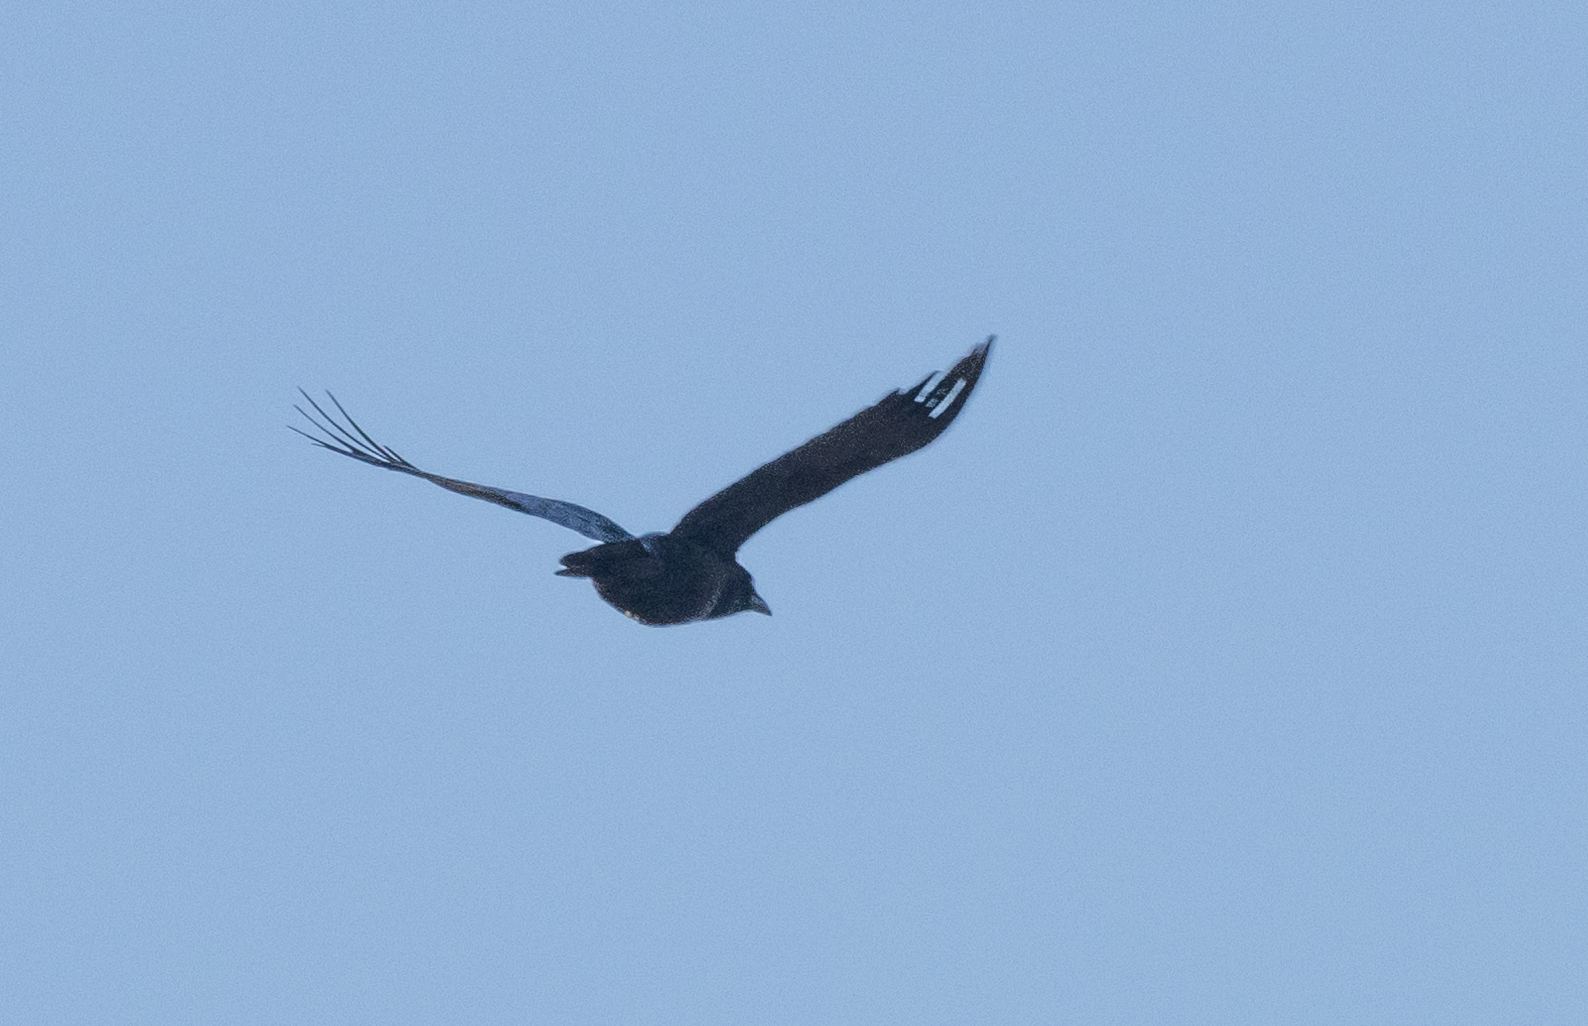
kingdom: Animalia
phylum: Chordata
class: Aves
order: Passeriformes
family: Corvidae
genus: Corvus
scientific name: Corvus brachyrhynchos
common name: American crow
